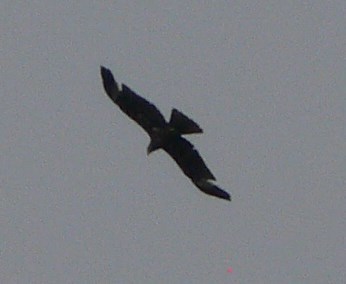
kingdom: Animalia
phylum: Chordata
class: Aves
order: Accipitriformes
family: Accipitridae
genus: Milvus
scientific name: Milvus migrans
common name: Black kite
